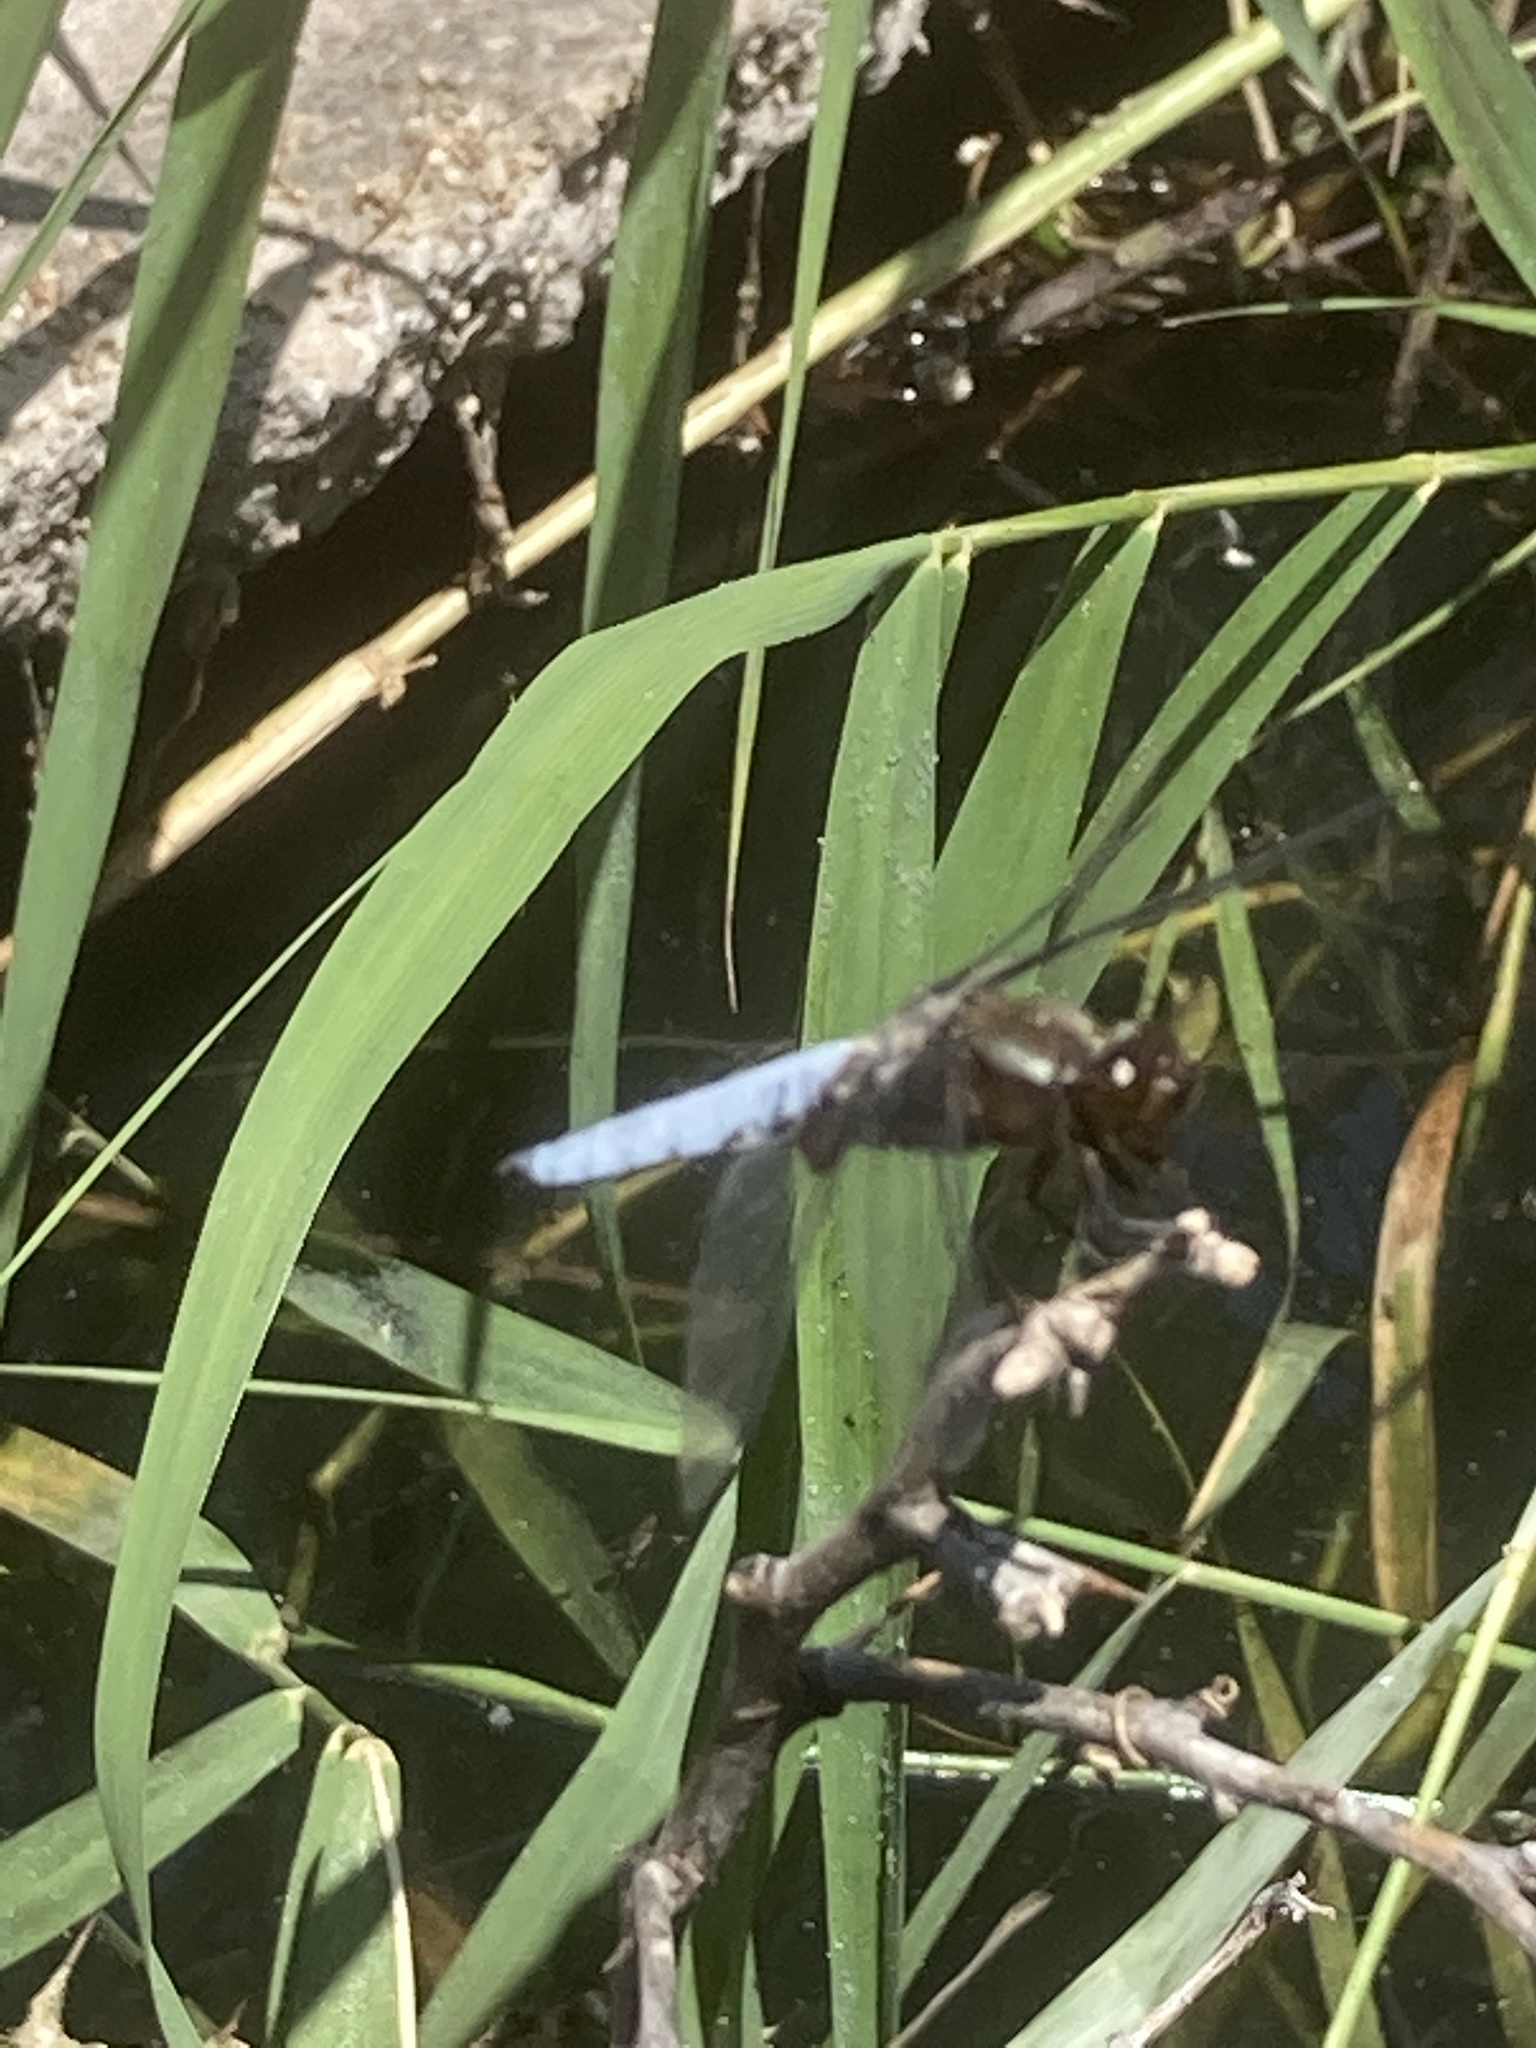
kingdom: Animalia
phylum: Arthropoda
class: Insecta
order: Odonata
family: Libellulidae
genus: Libellula
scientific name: Libellula depressa
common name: Broad-bodied chaser
